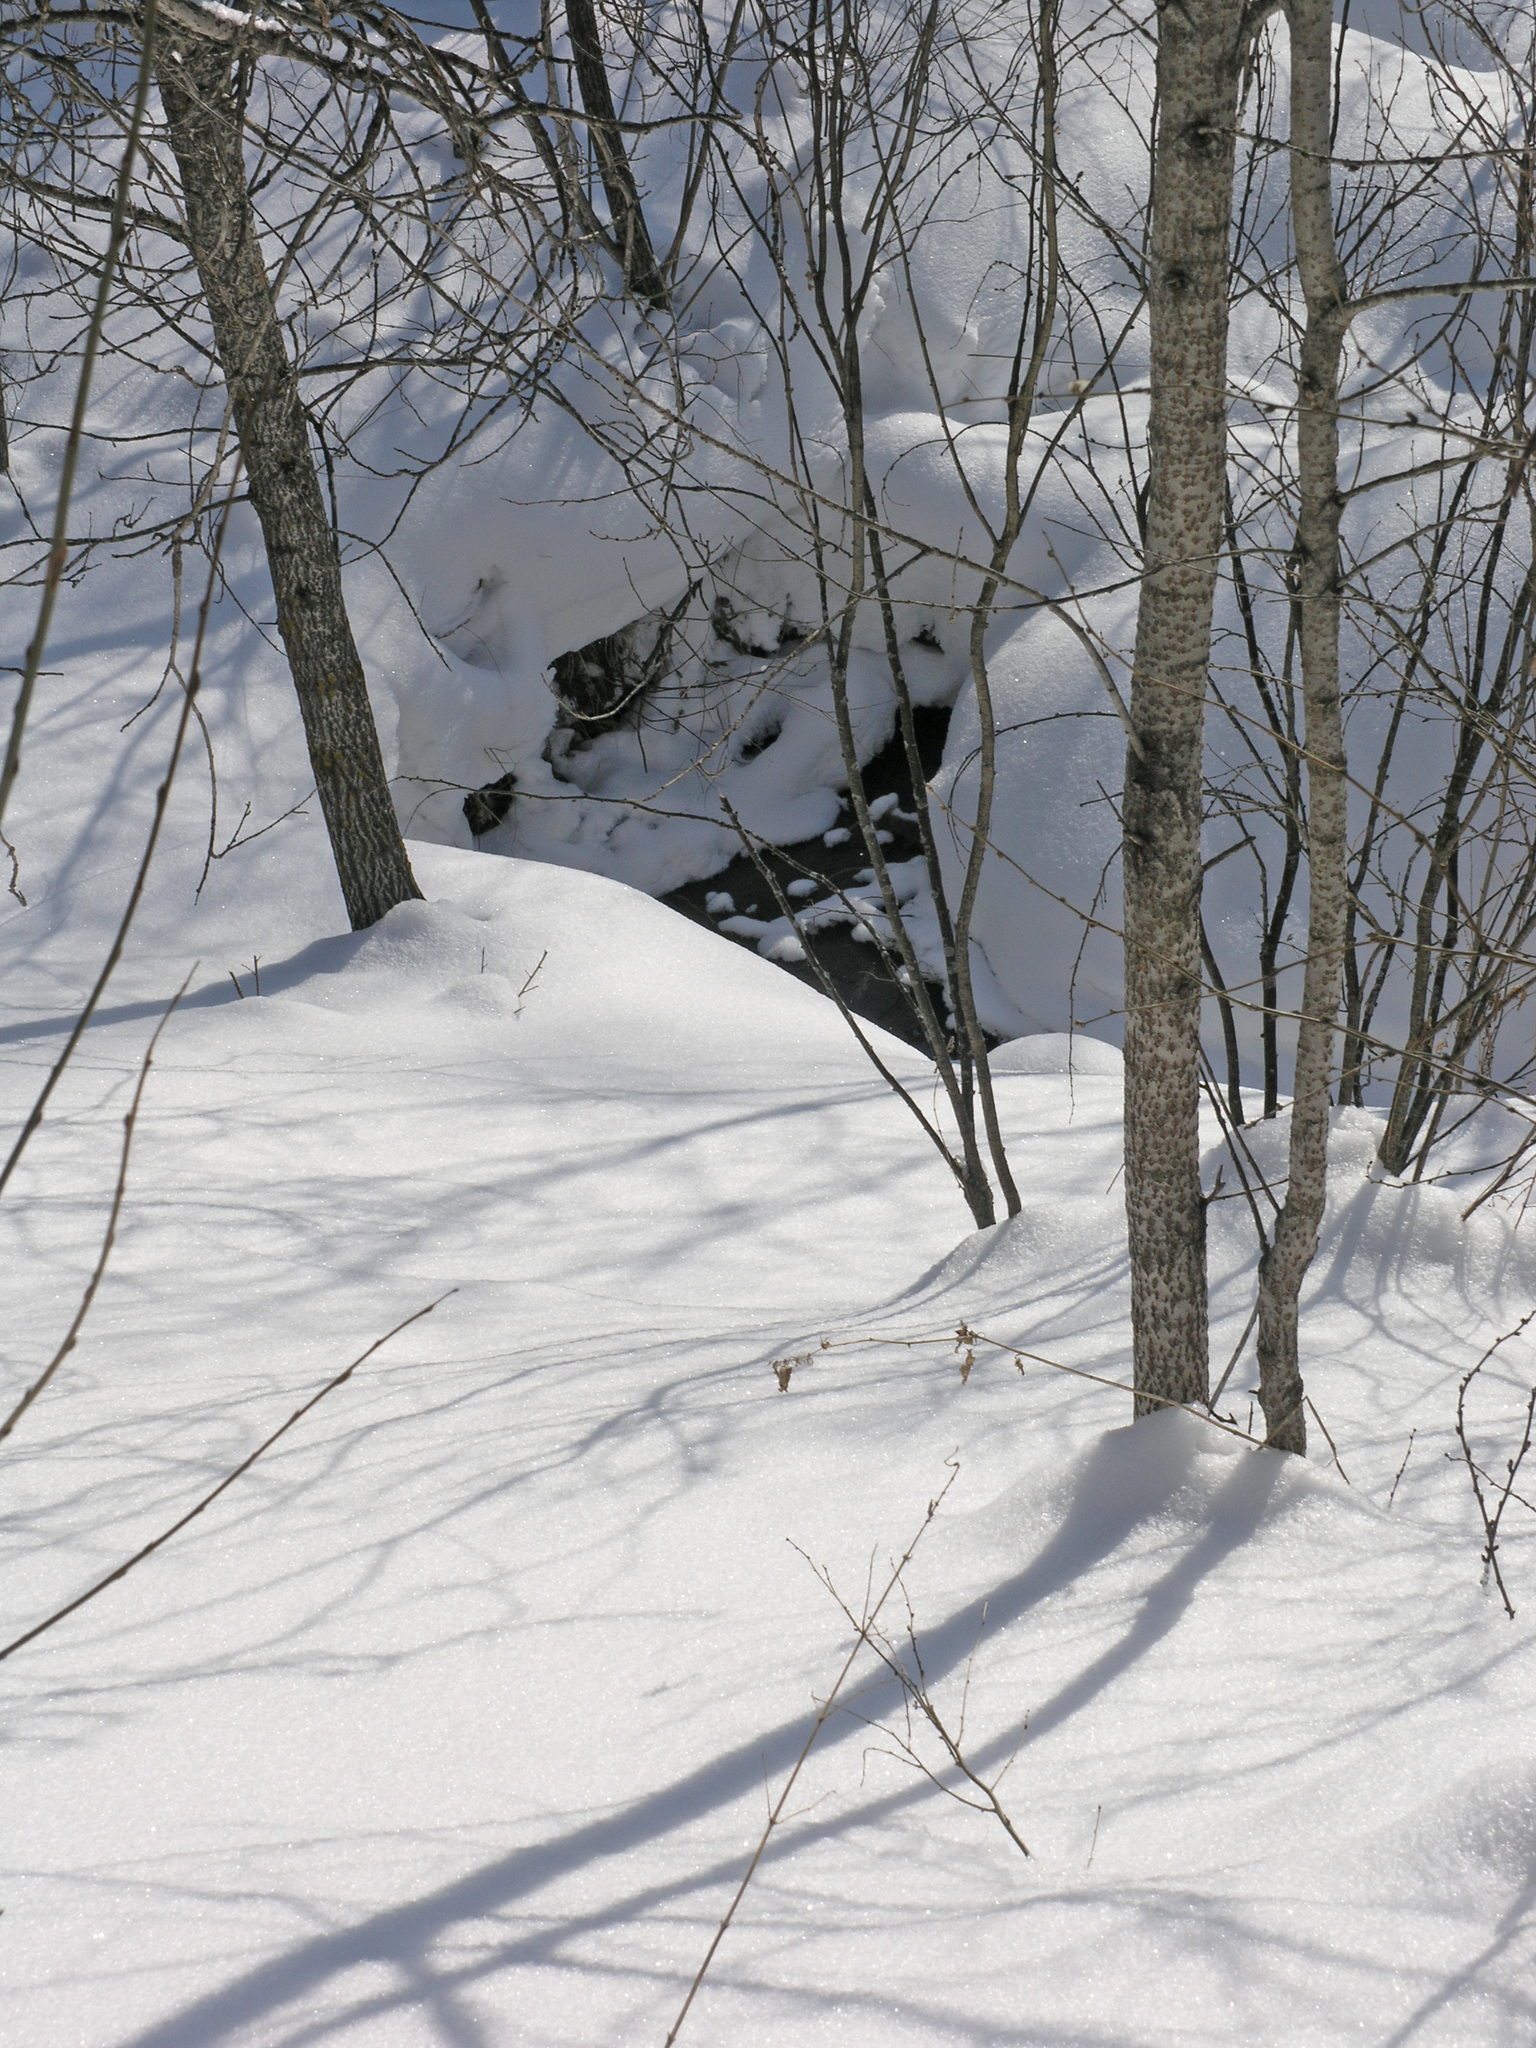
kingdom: Plantae
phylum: Tracheophyta
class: Magnoliopsida
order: Malpighiales
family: Salicaceae
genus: Populus
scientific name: Populus tremula
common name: European aspen
